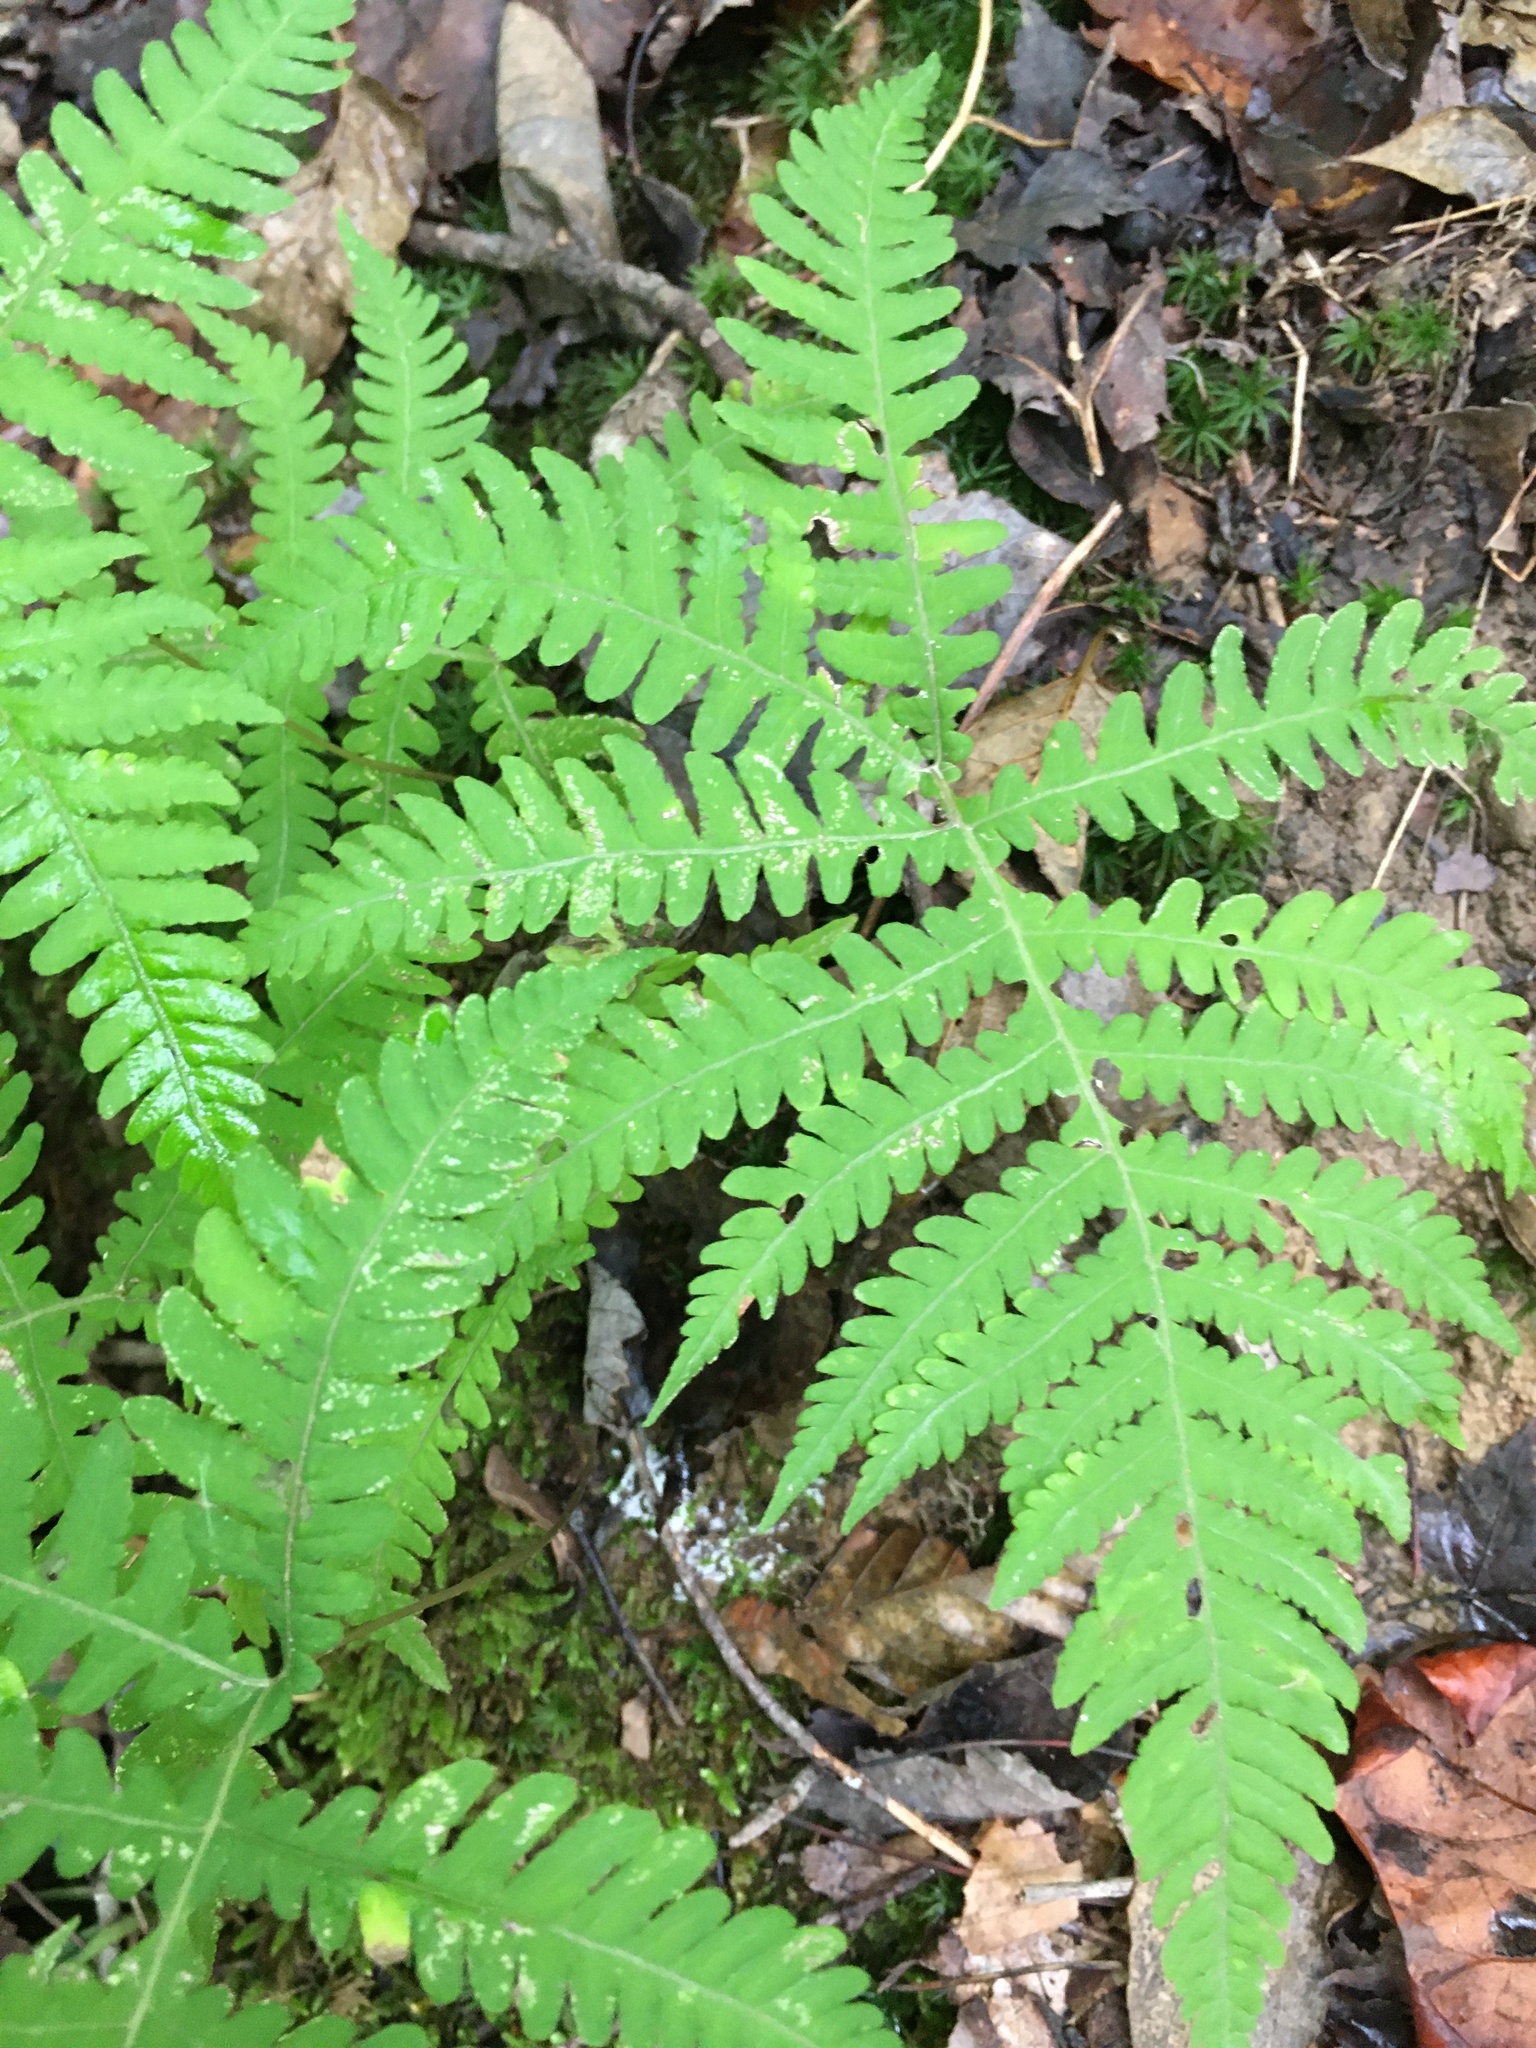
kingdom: Plantae
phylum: Tracheophyta
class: Polypodiopsida
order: Polypodiales
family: Thelypteridaceae
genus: Phegopteris
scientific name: Phegopteris hexagonoptera
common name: Broad beech fern
